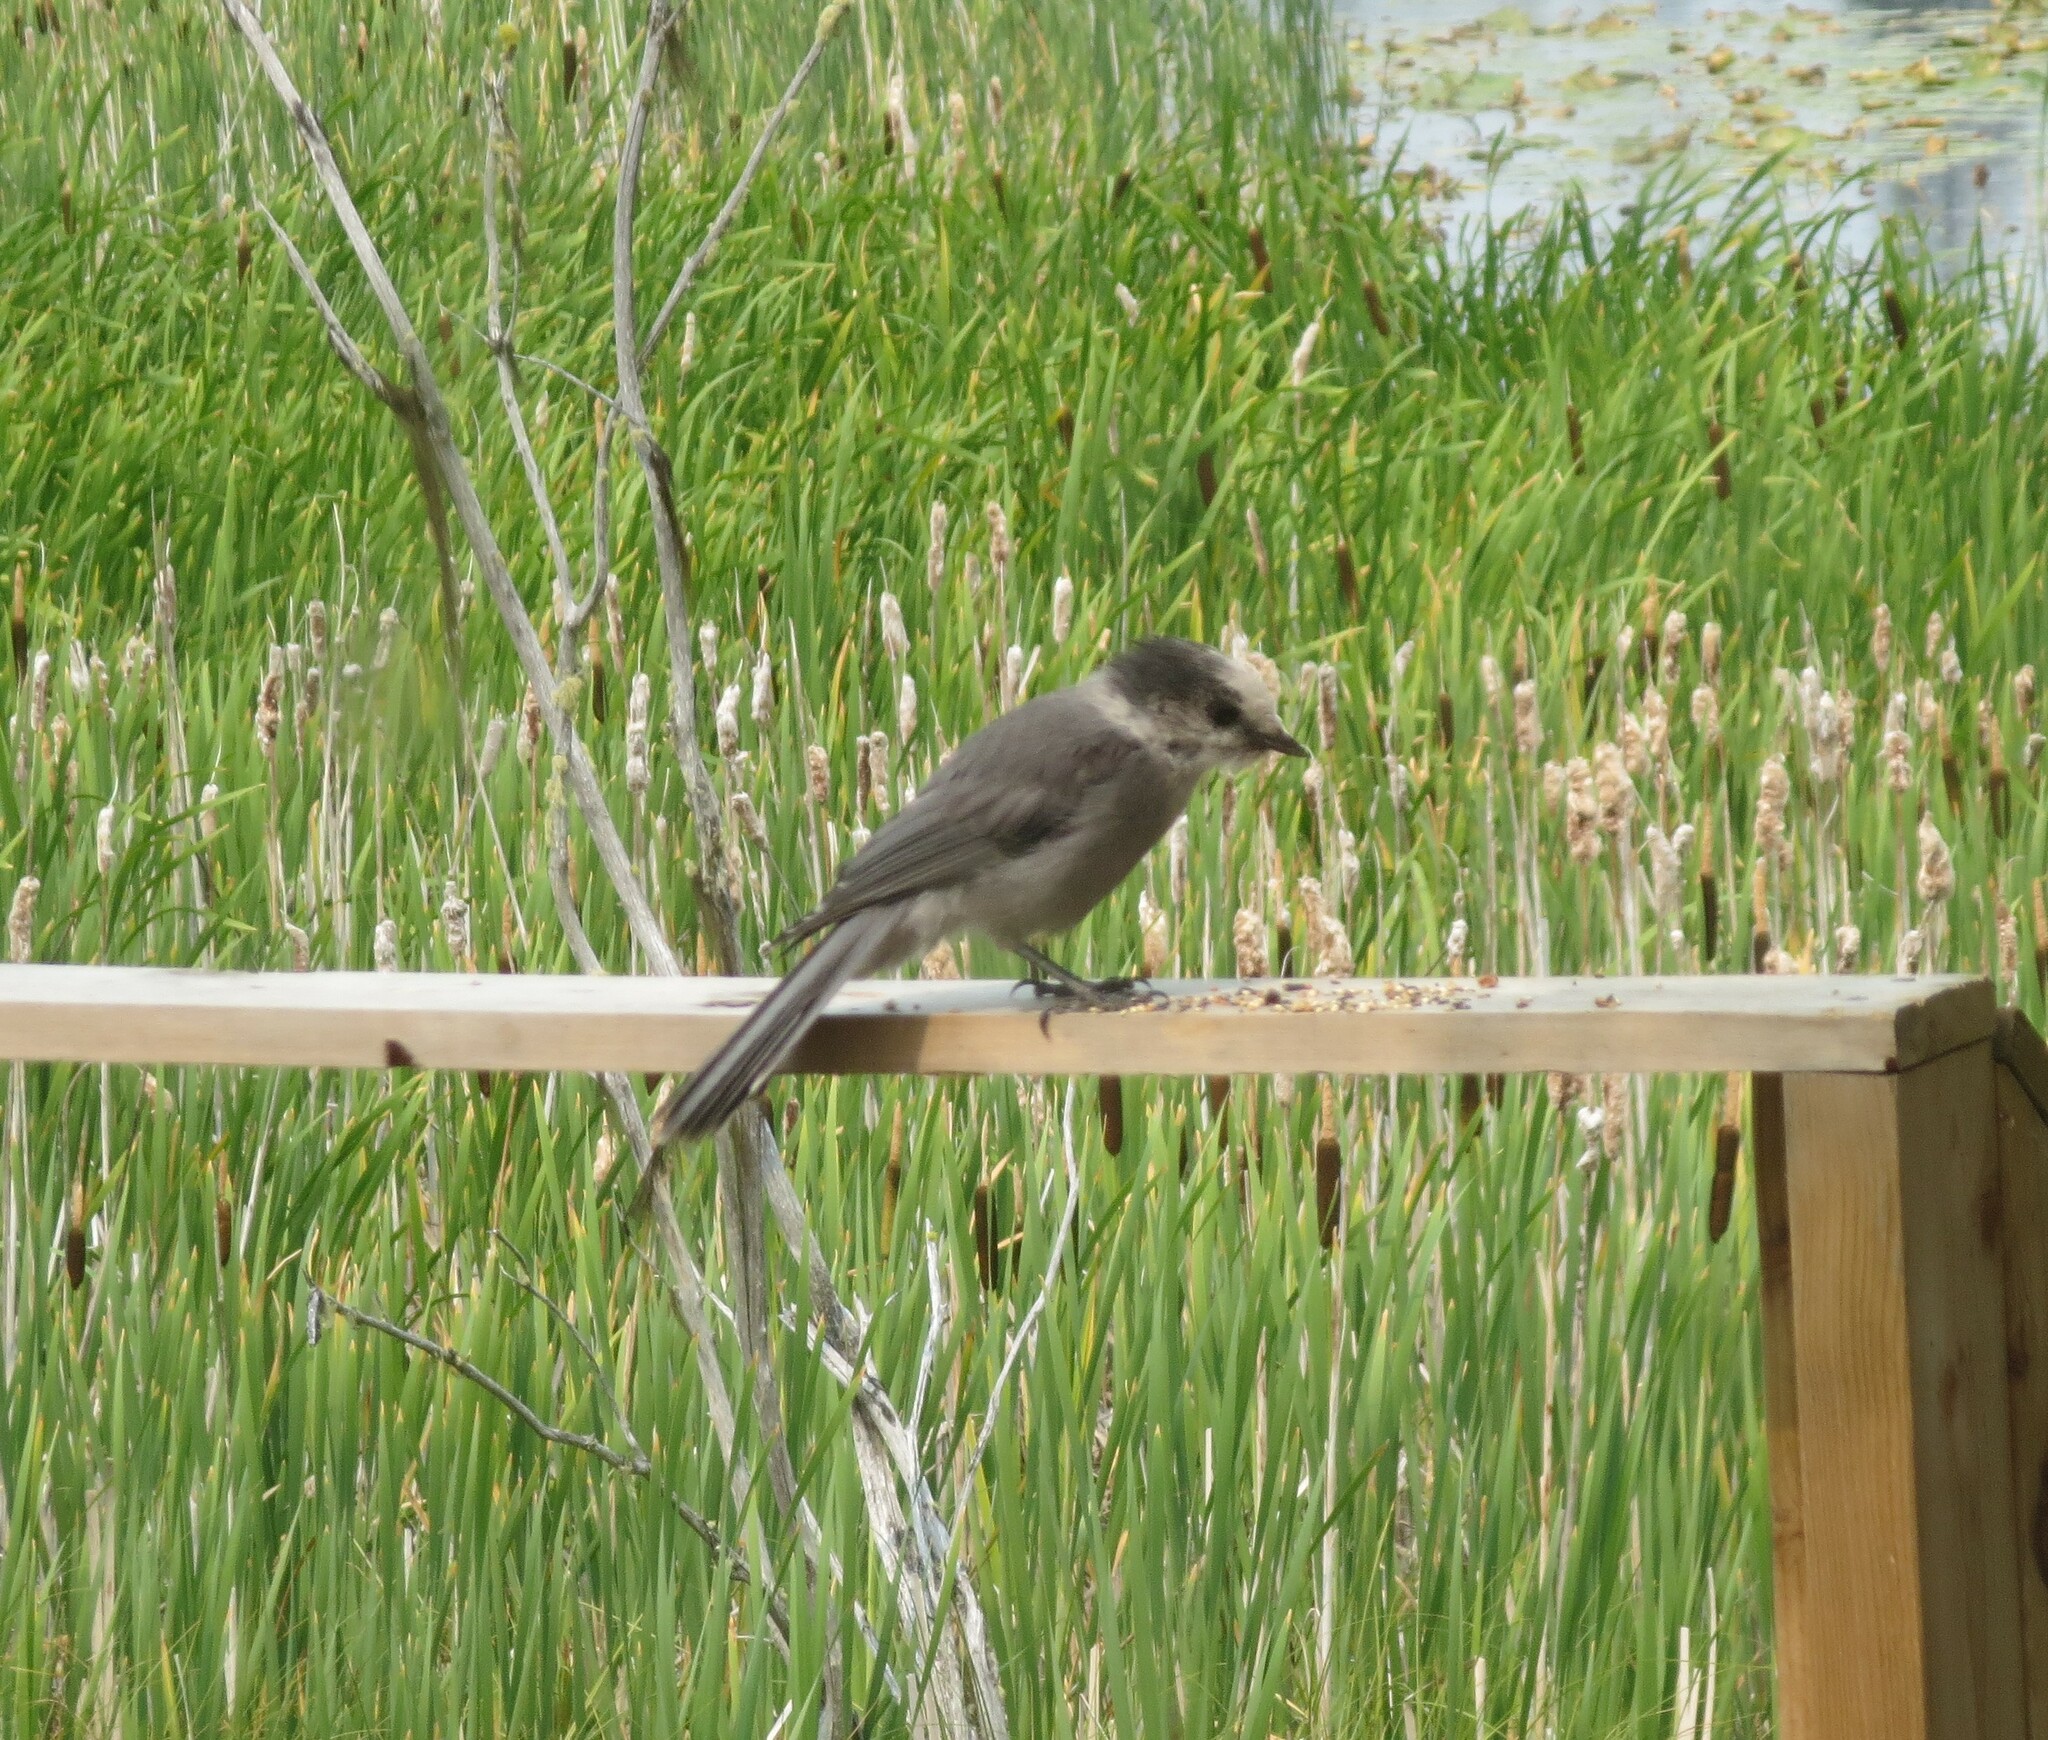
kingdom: Animalia
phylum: Chordata
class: Aves
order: Passeriformes
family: Corvidae
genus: Perisoreus
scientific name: Perisoreus canadensis
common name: Gray jay
